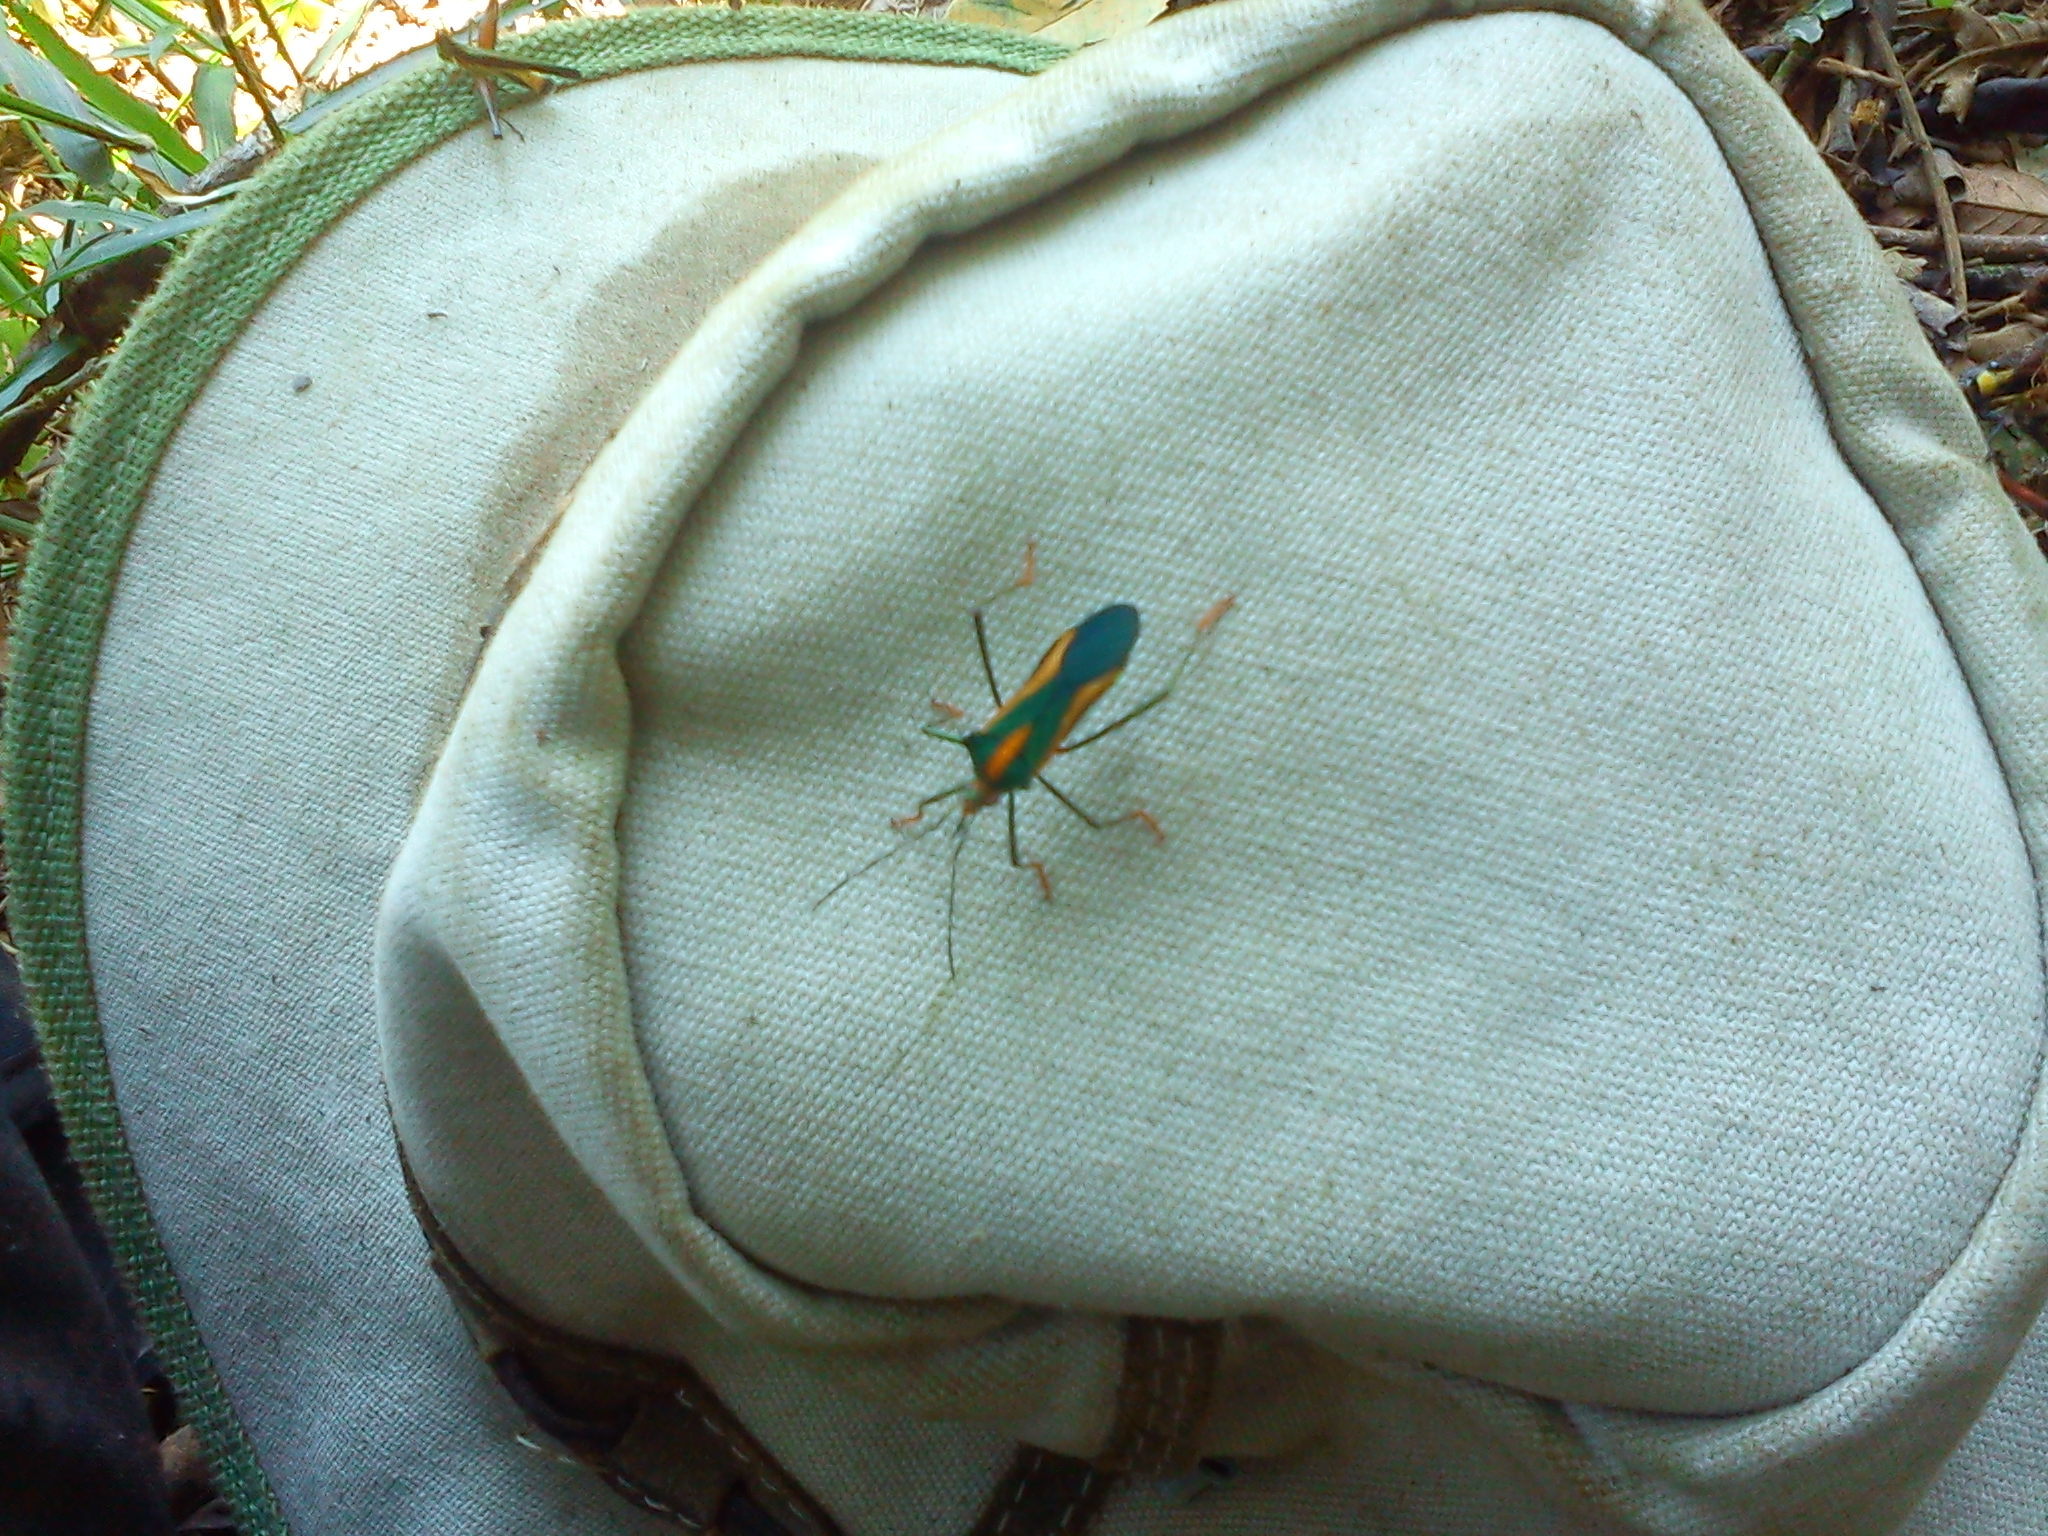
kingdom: Animalia
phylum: Arthropoda
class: Insecta
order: Hemiptera
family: Coreidae
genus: Malvanaioides
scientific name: Malvanaioides galvina
